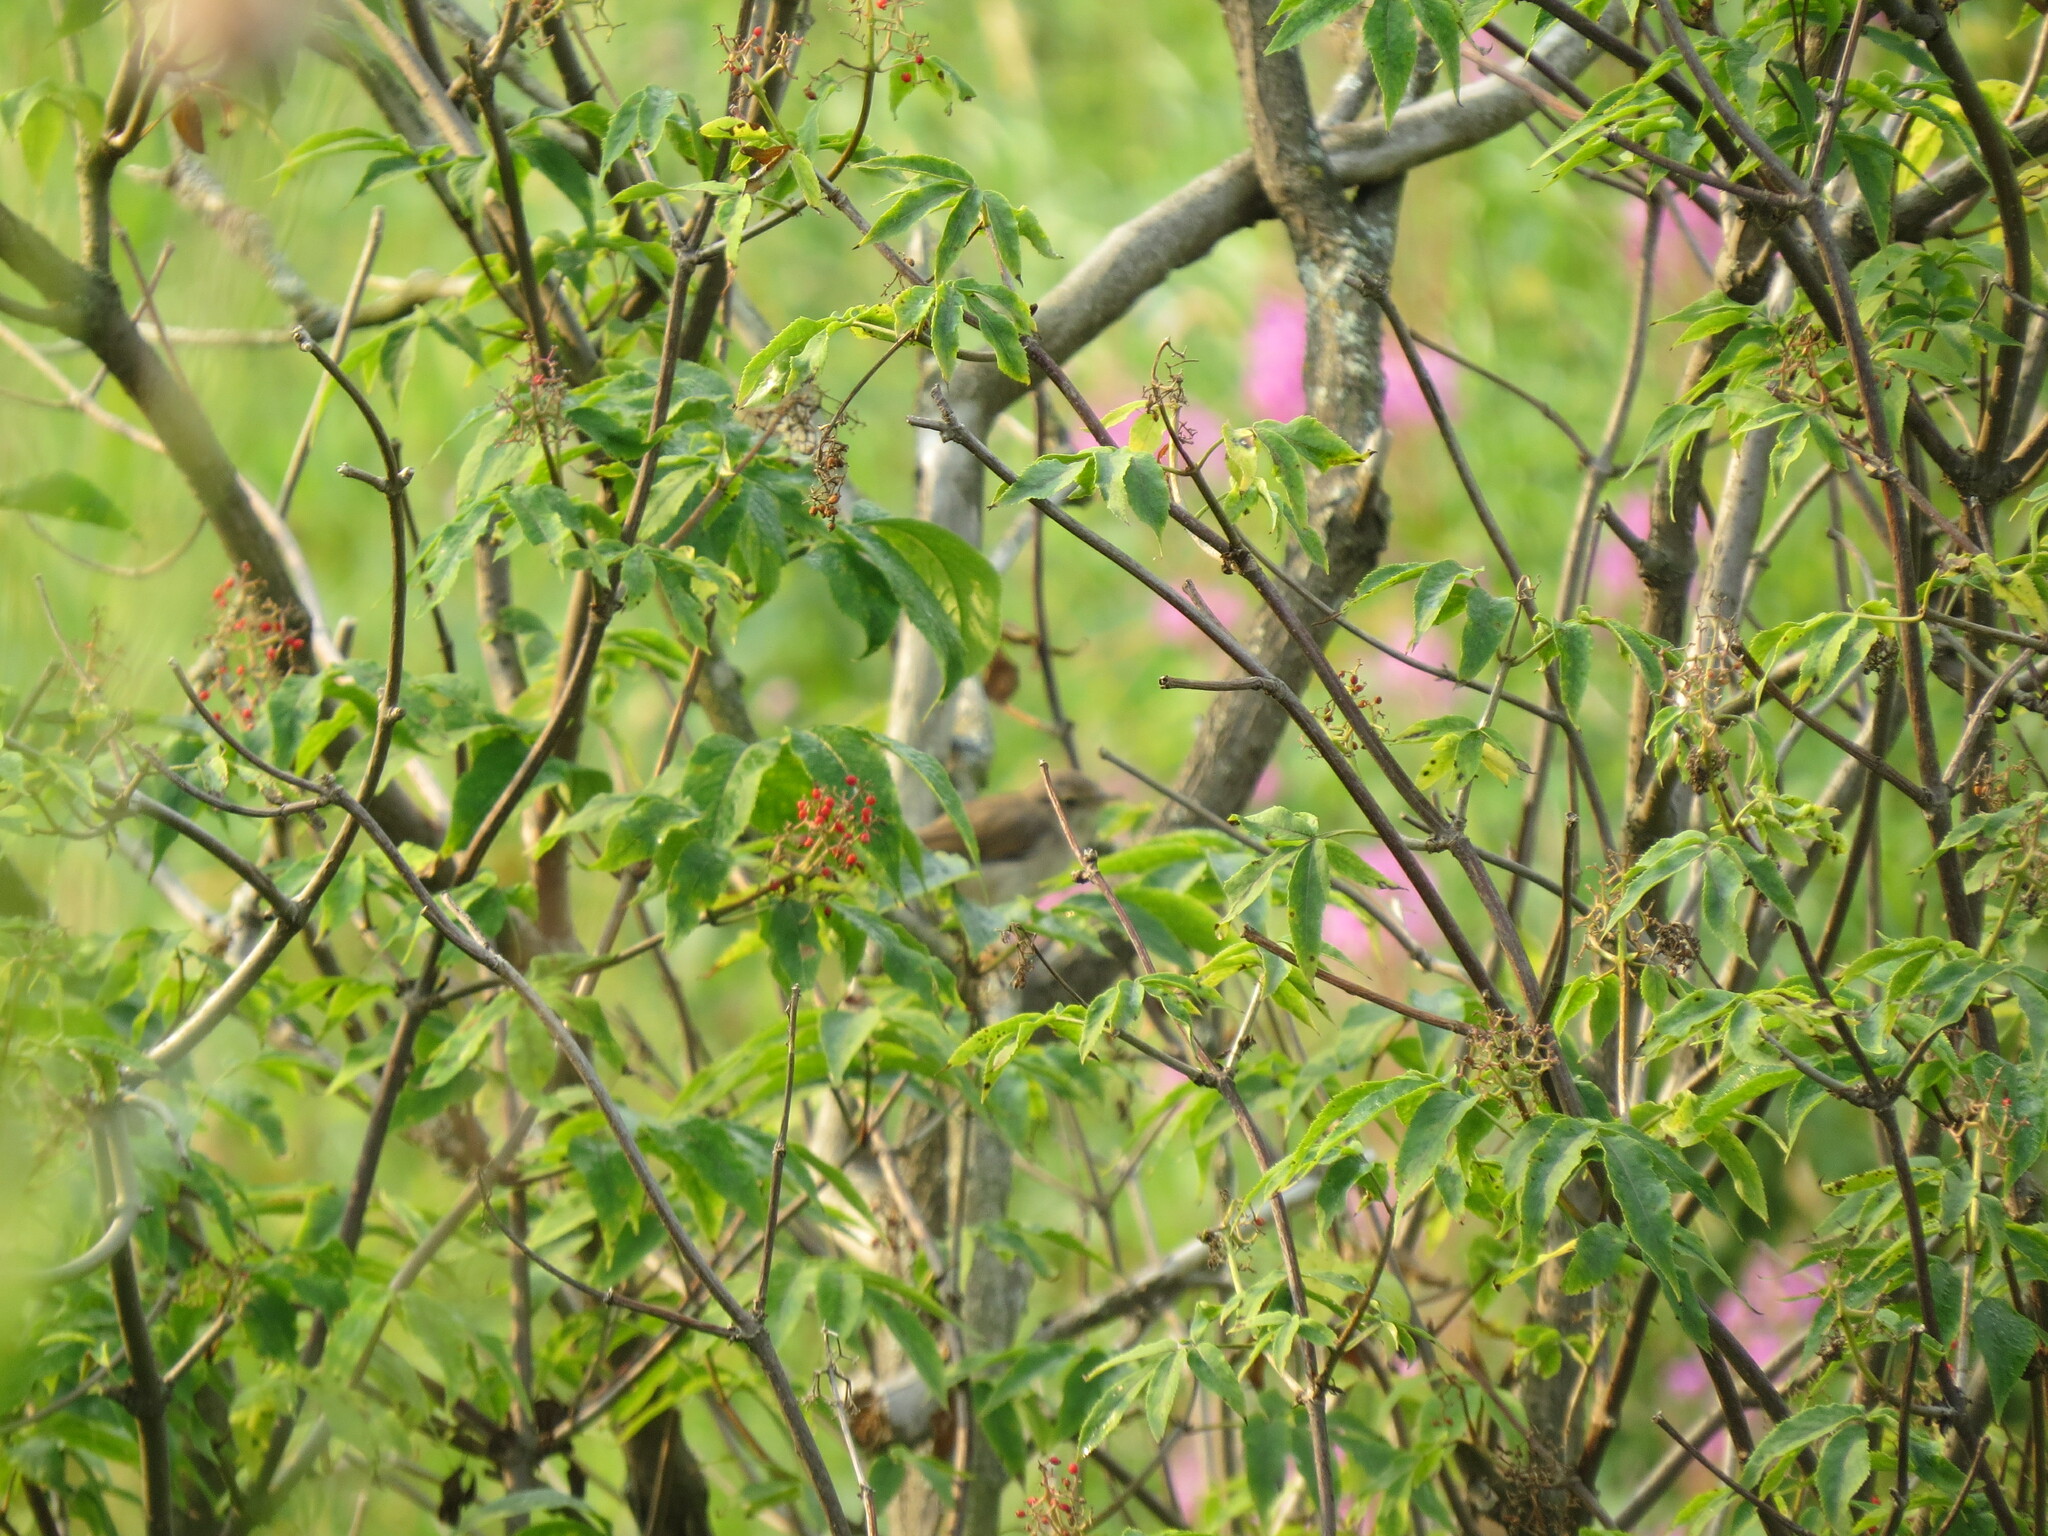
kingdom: Animalia
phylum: Chordata
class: Aves
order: Passeriformes
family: Sylviidae
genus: Sylvia
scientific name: Sylvia communis
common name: Common whitethroat
